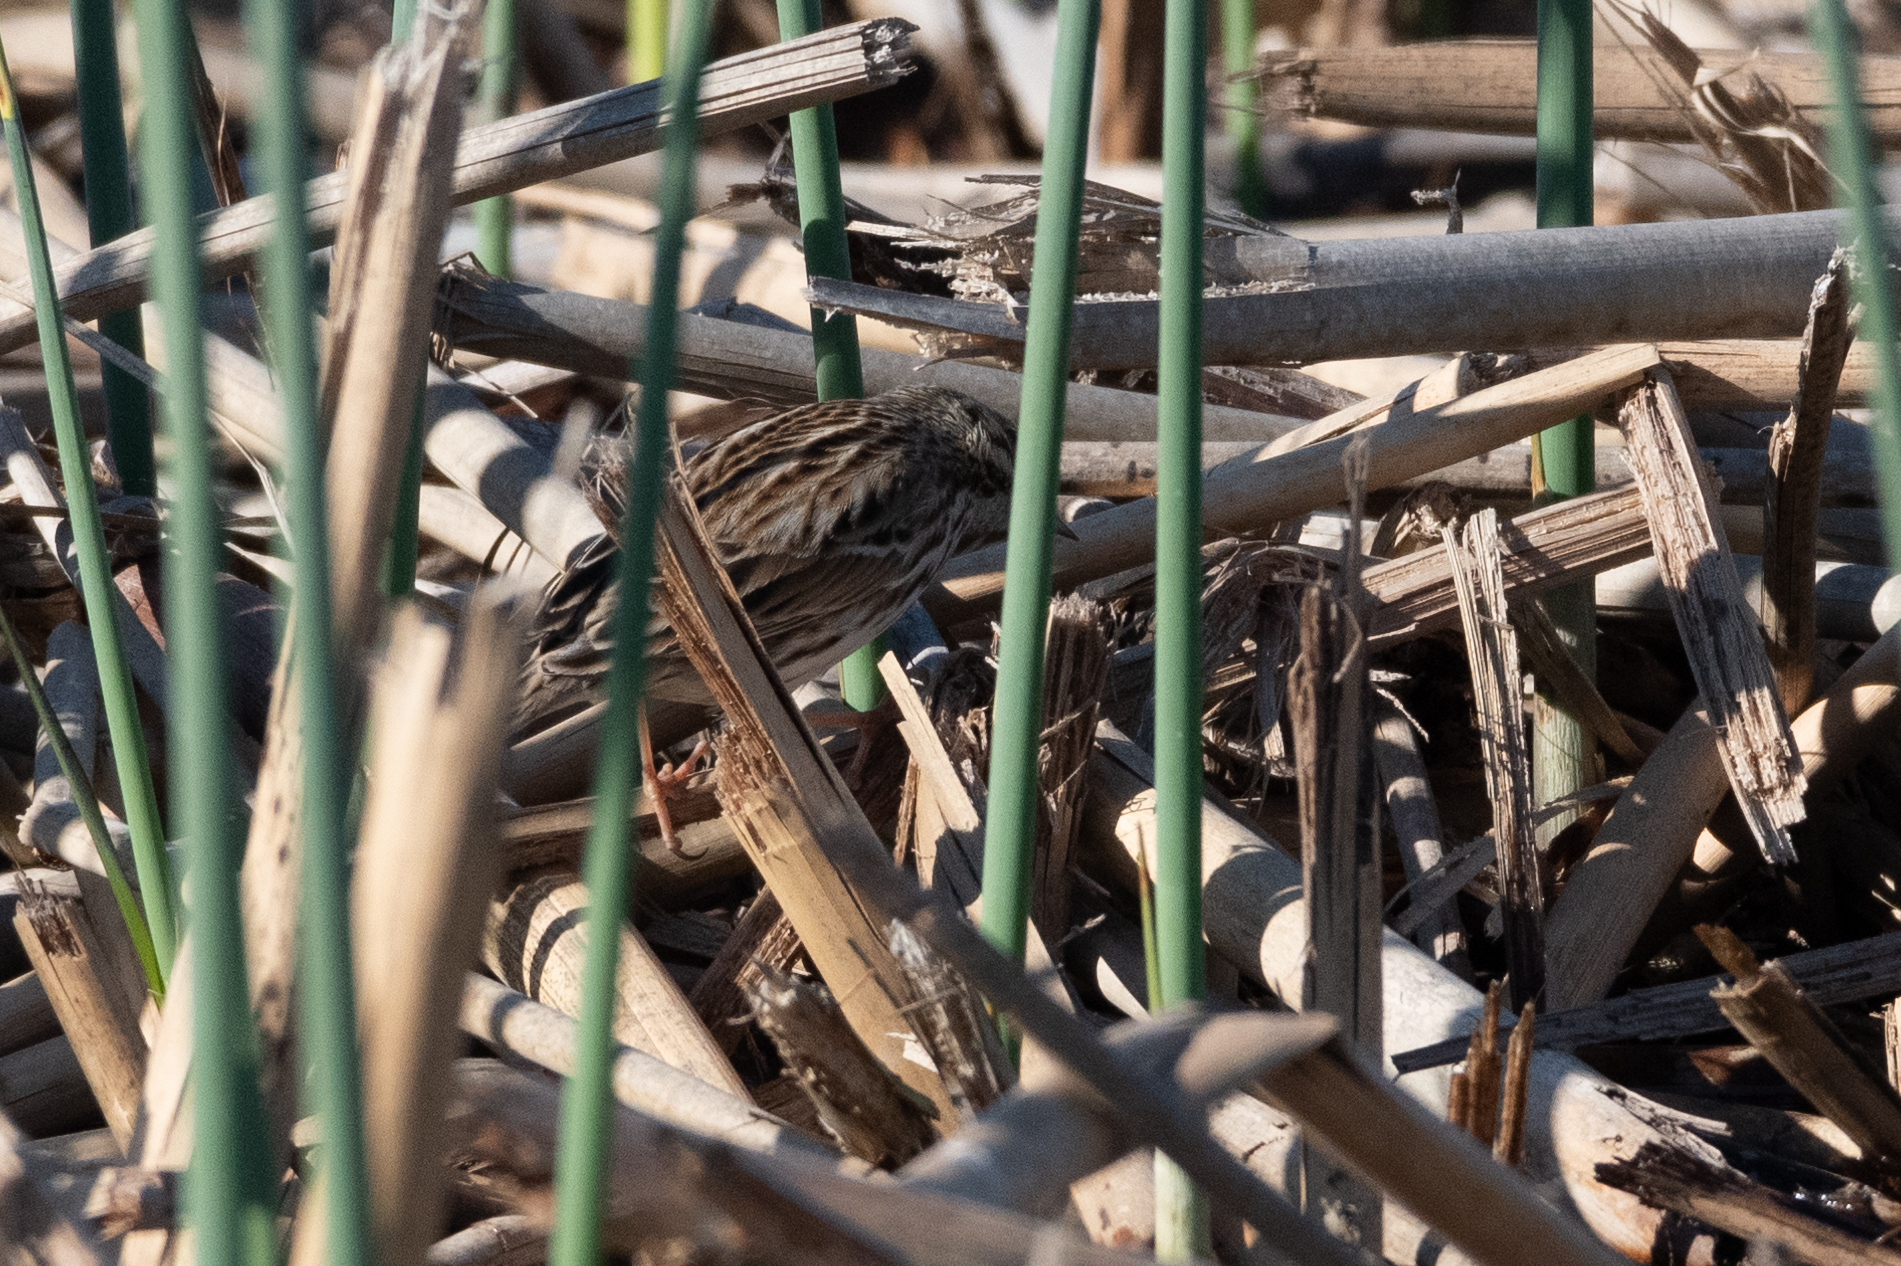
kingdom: Animalia
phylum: Chordata
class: Aves
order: Passeriformes
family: Passerellidae
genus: Passerculus
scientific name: Passerculus sandwichensis
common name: Savannah sparrow
